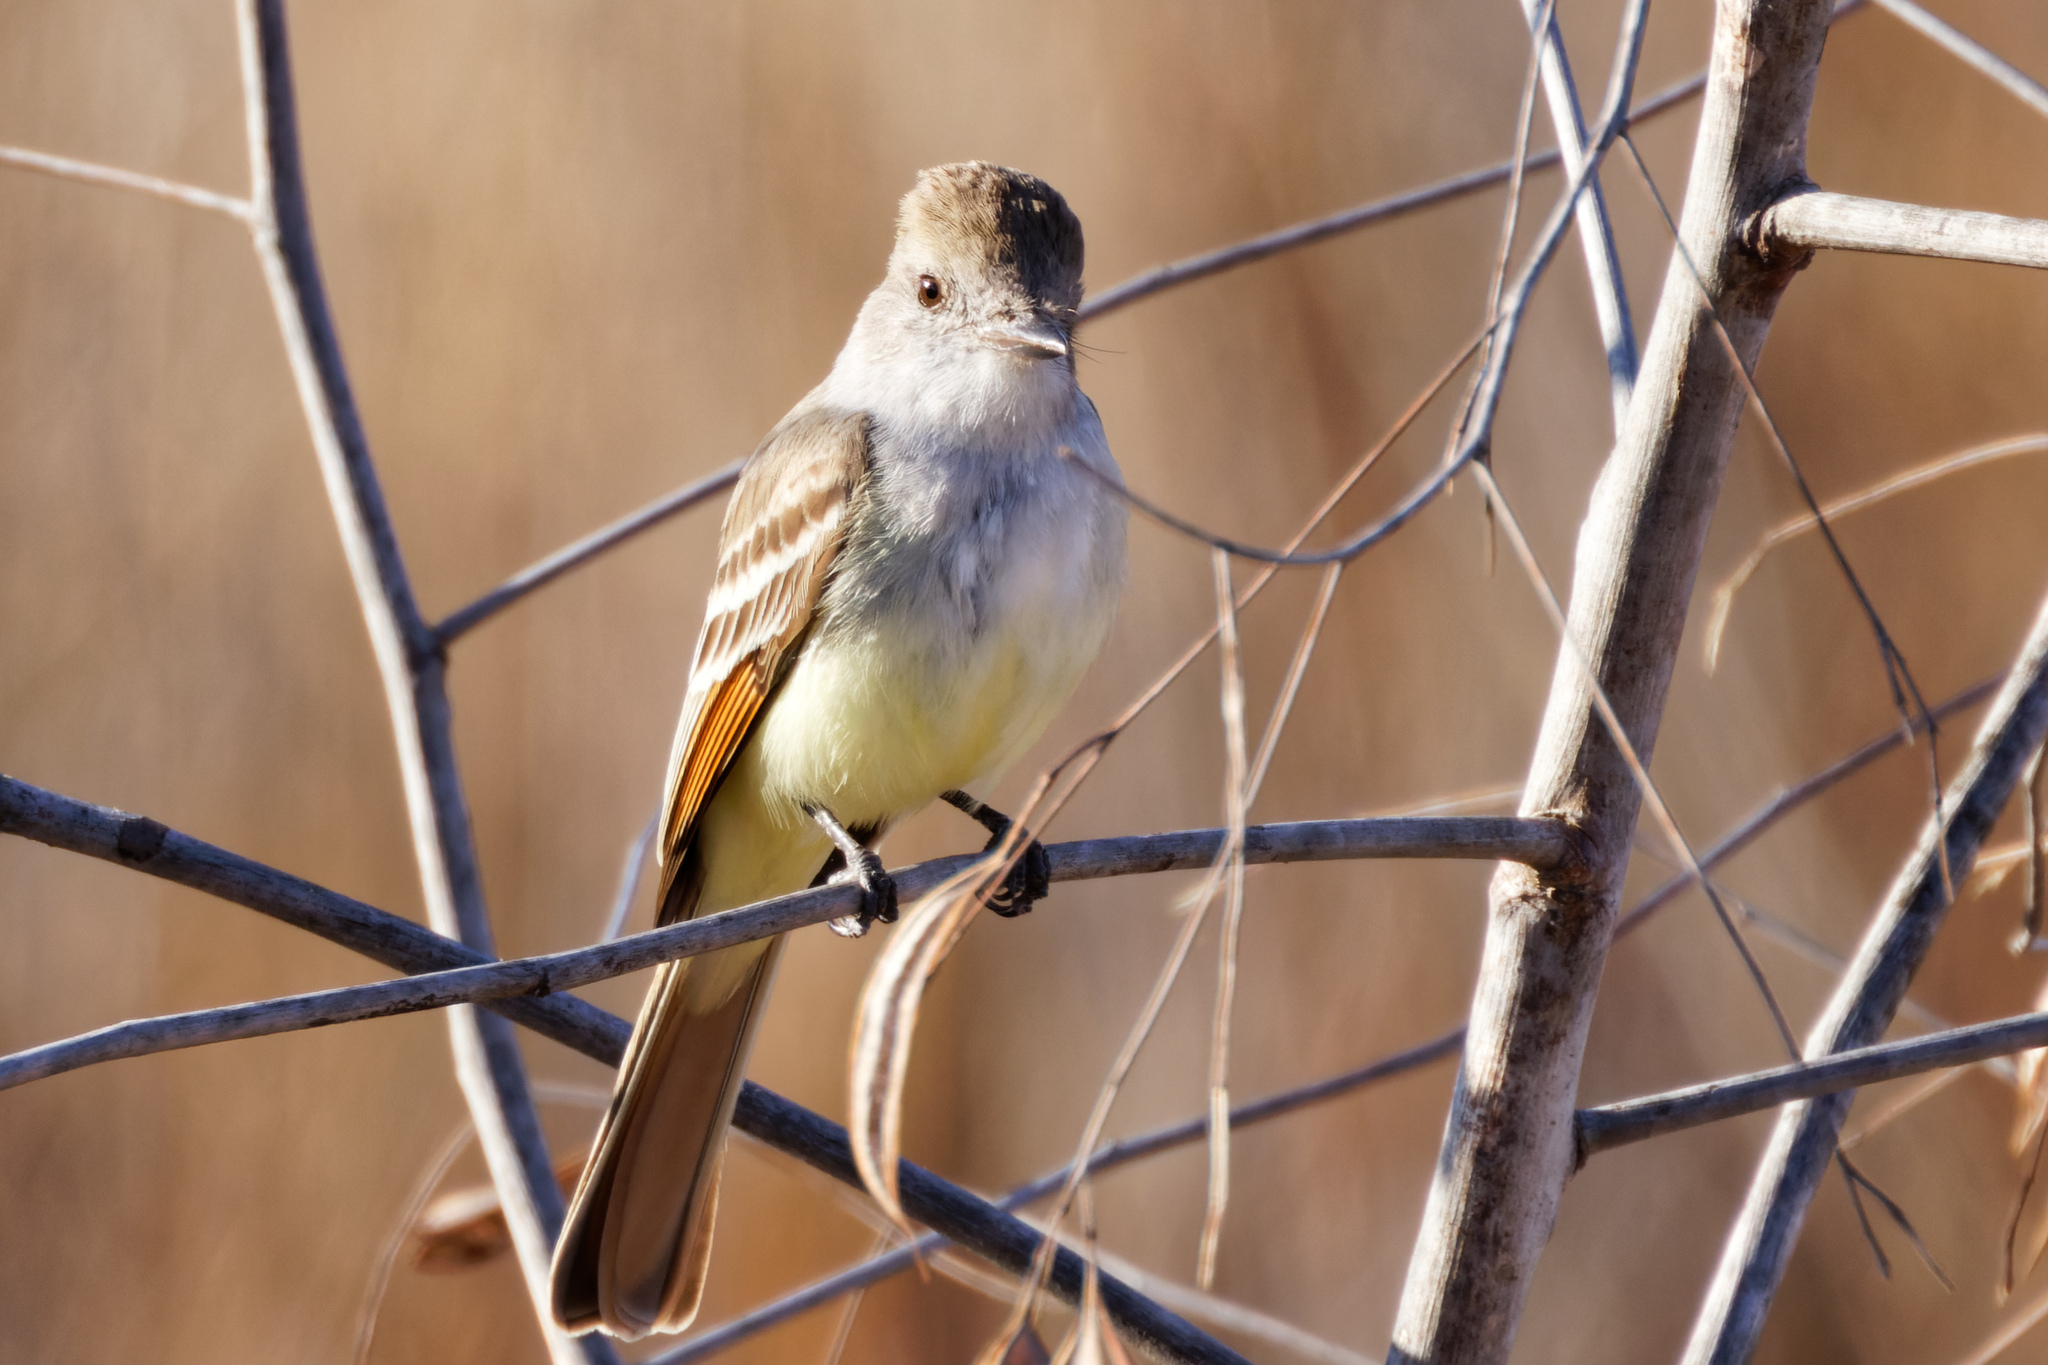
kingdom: Animalia
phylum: Chordata
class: Aves
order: Passeriformes
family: Tyrannidae
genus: Myiarchus
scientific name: Myiarchus cinerascens
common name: Ash-throated flycatcher
